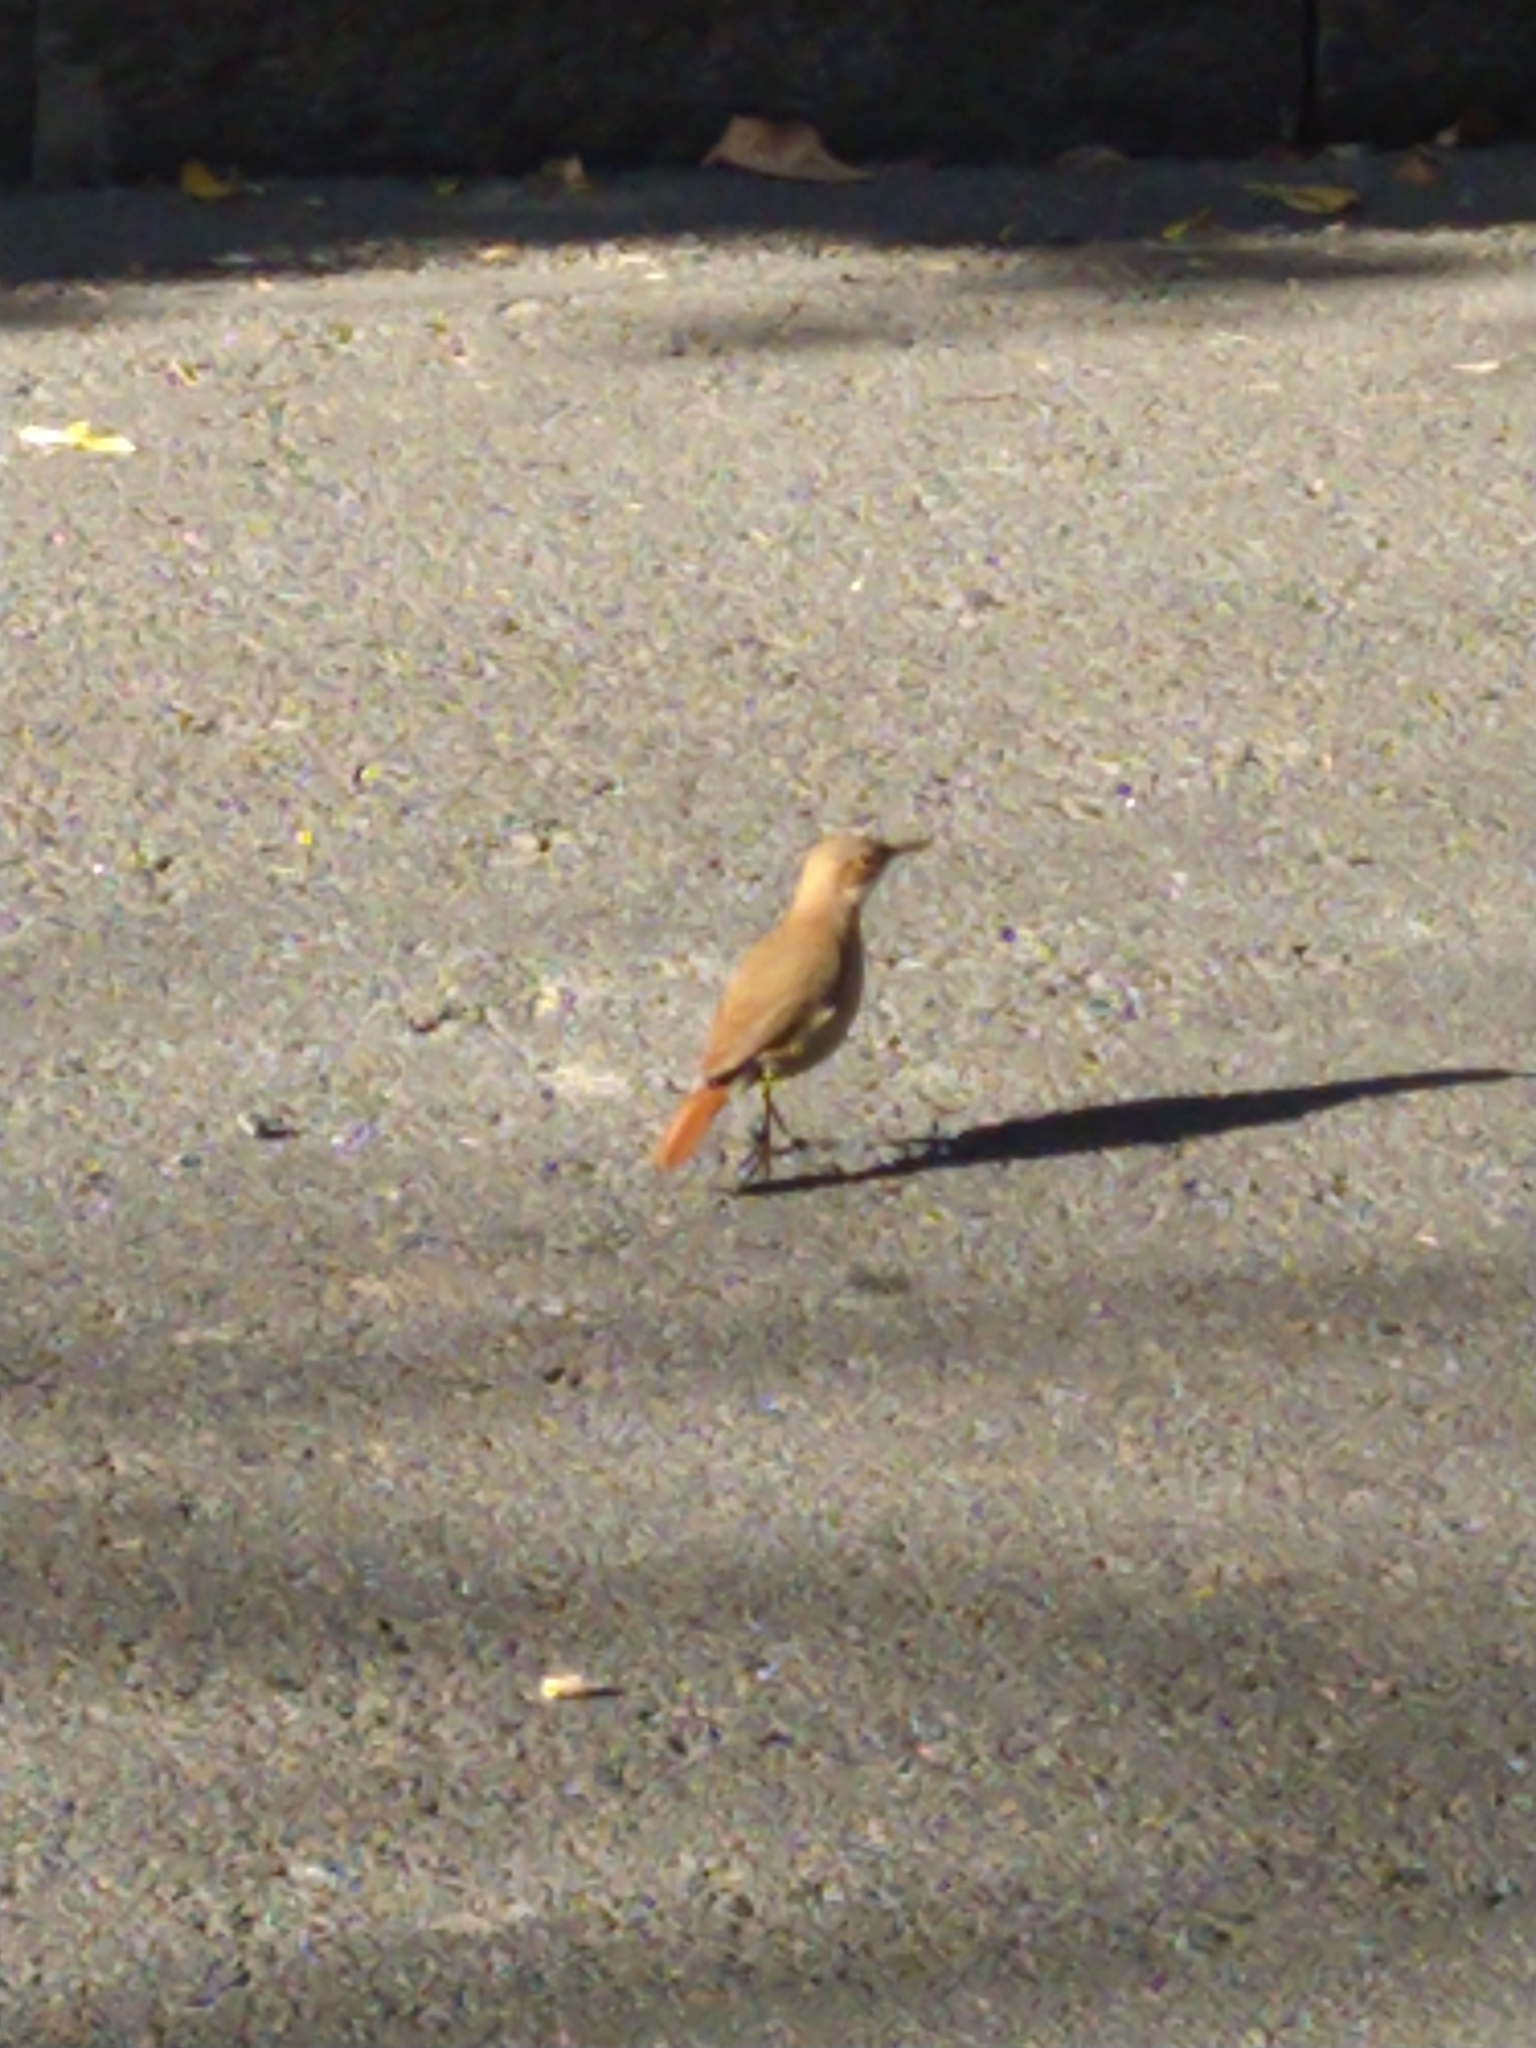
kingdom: Animalia
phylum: Chordata
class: Aves
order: Passeriformes
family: Furnariidae
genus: Furnarius
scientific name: Furnarius rufus
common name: Rufous hornero
